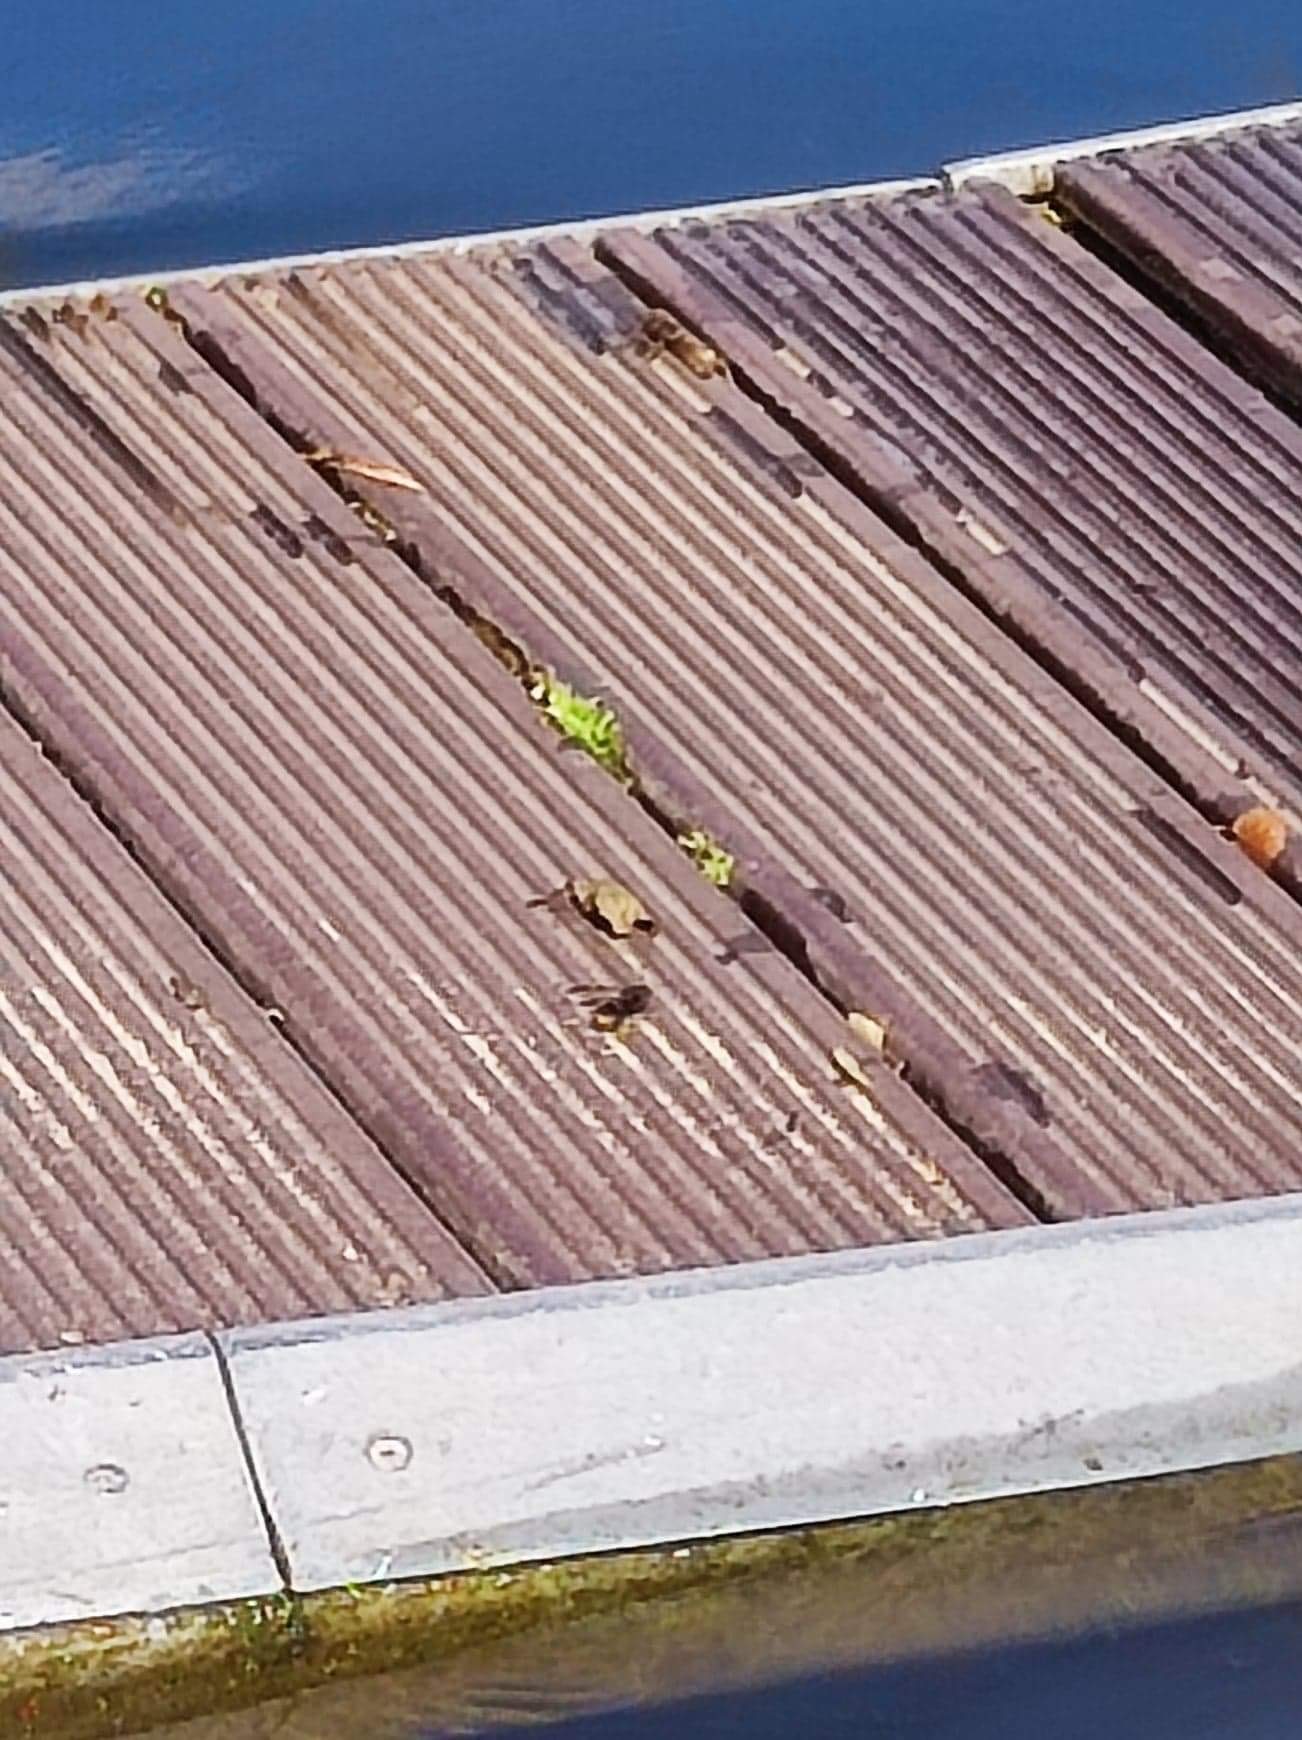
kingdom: Animalia
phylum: Arthropoda
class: Insecta
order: Hymenoptera
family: Vespidae
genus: Vespa
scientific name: Vespa velutina
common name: Asian hornet
